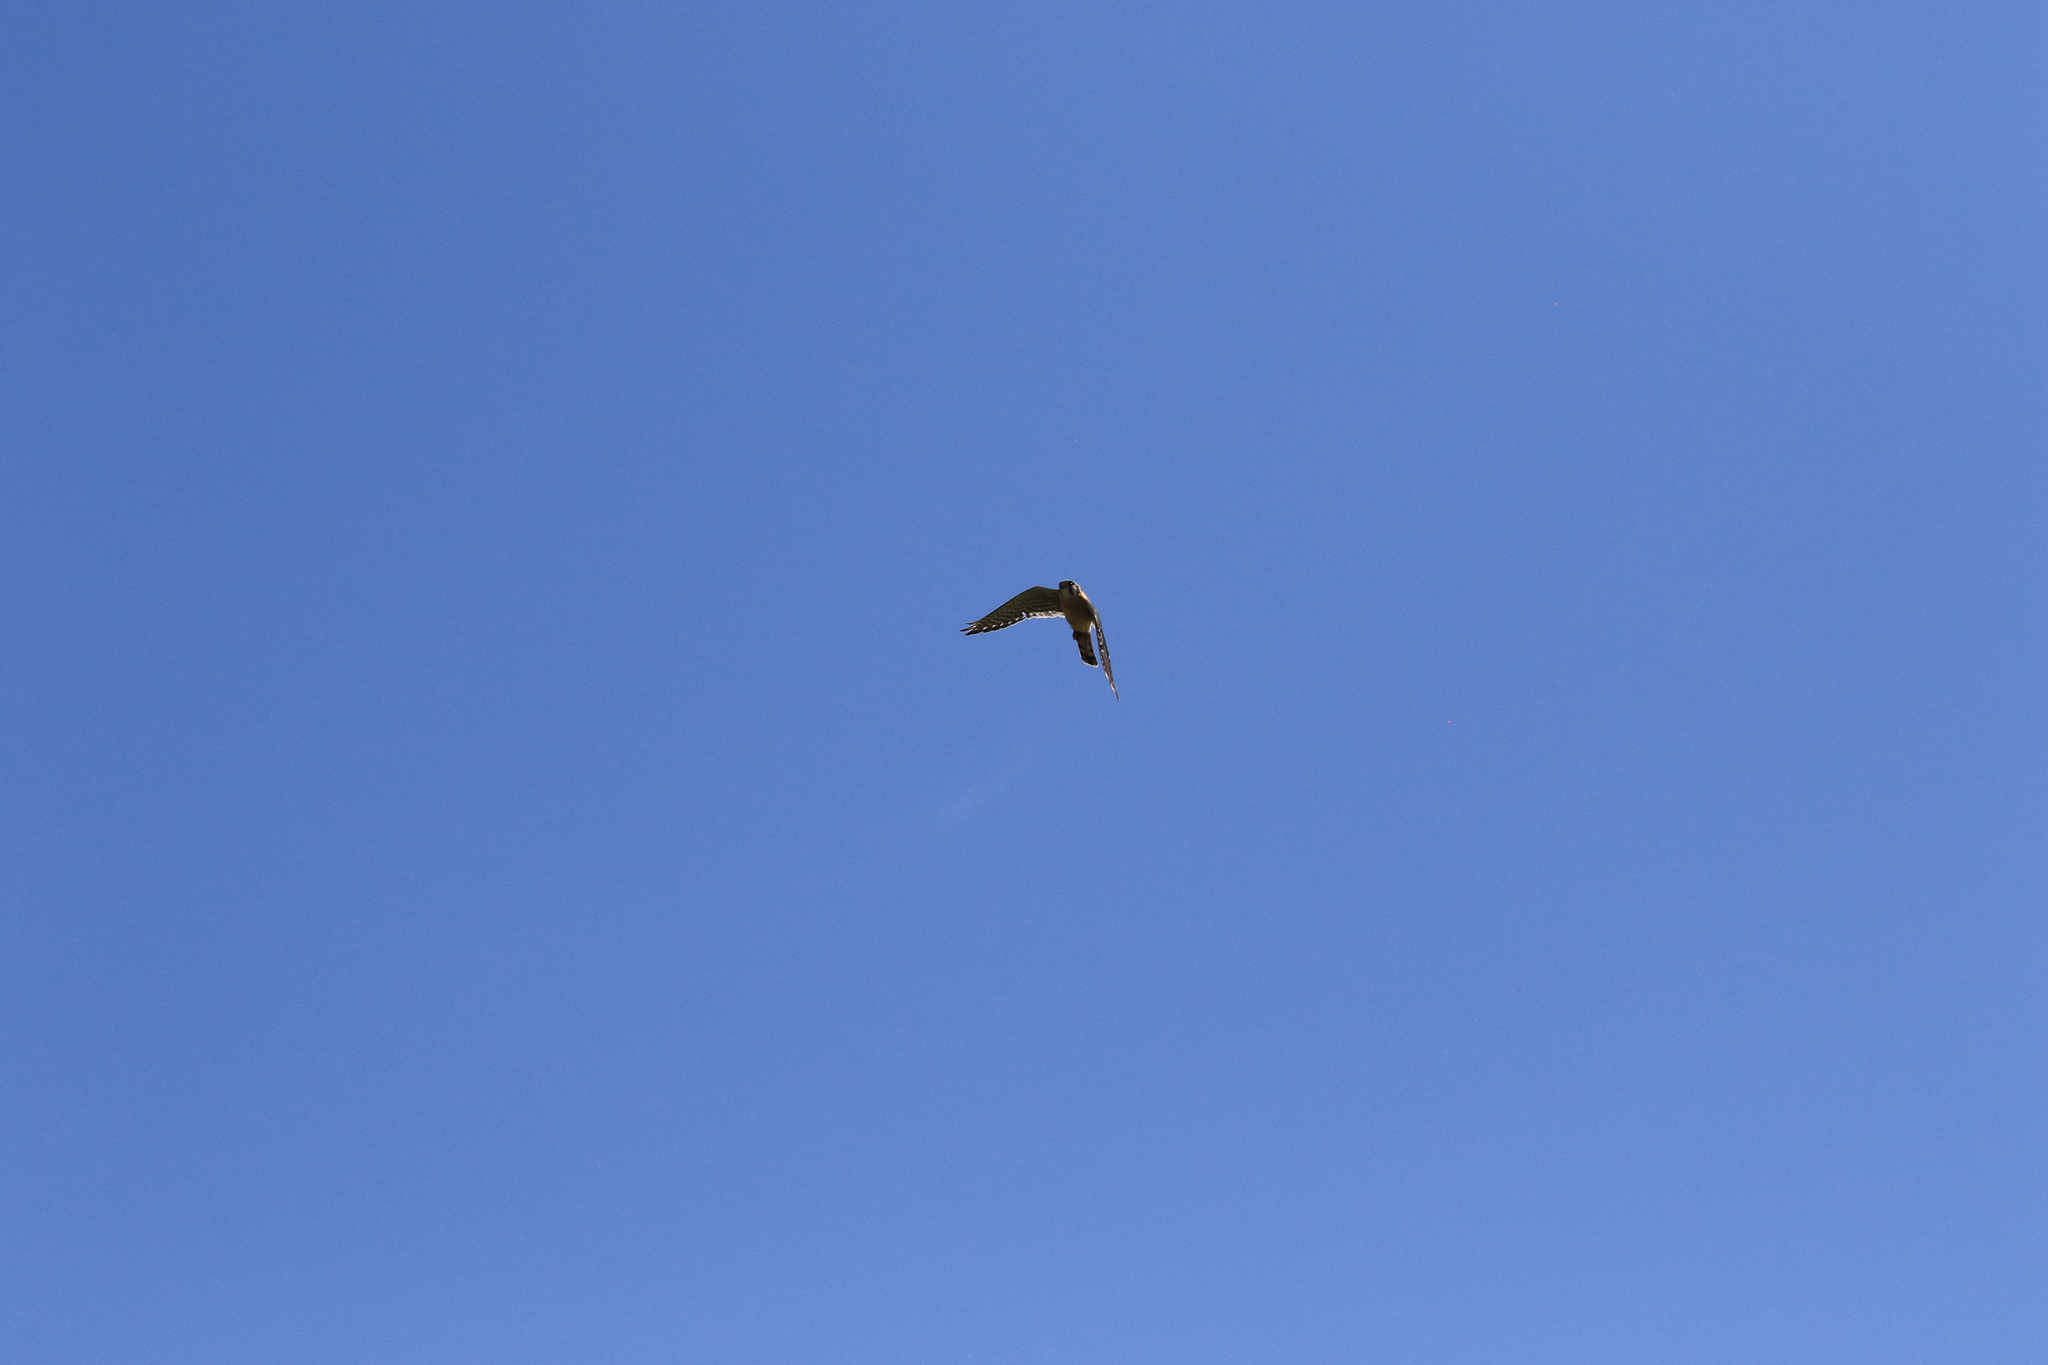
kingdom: Animalia
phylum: Chordata
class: Aves
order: Falconiformes
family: Falconidae
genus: Falco
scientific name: Falco sparverius
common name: American kestrel
